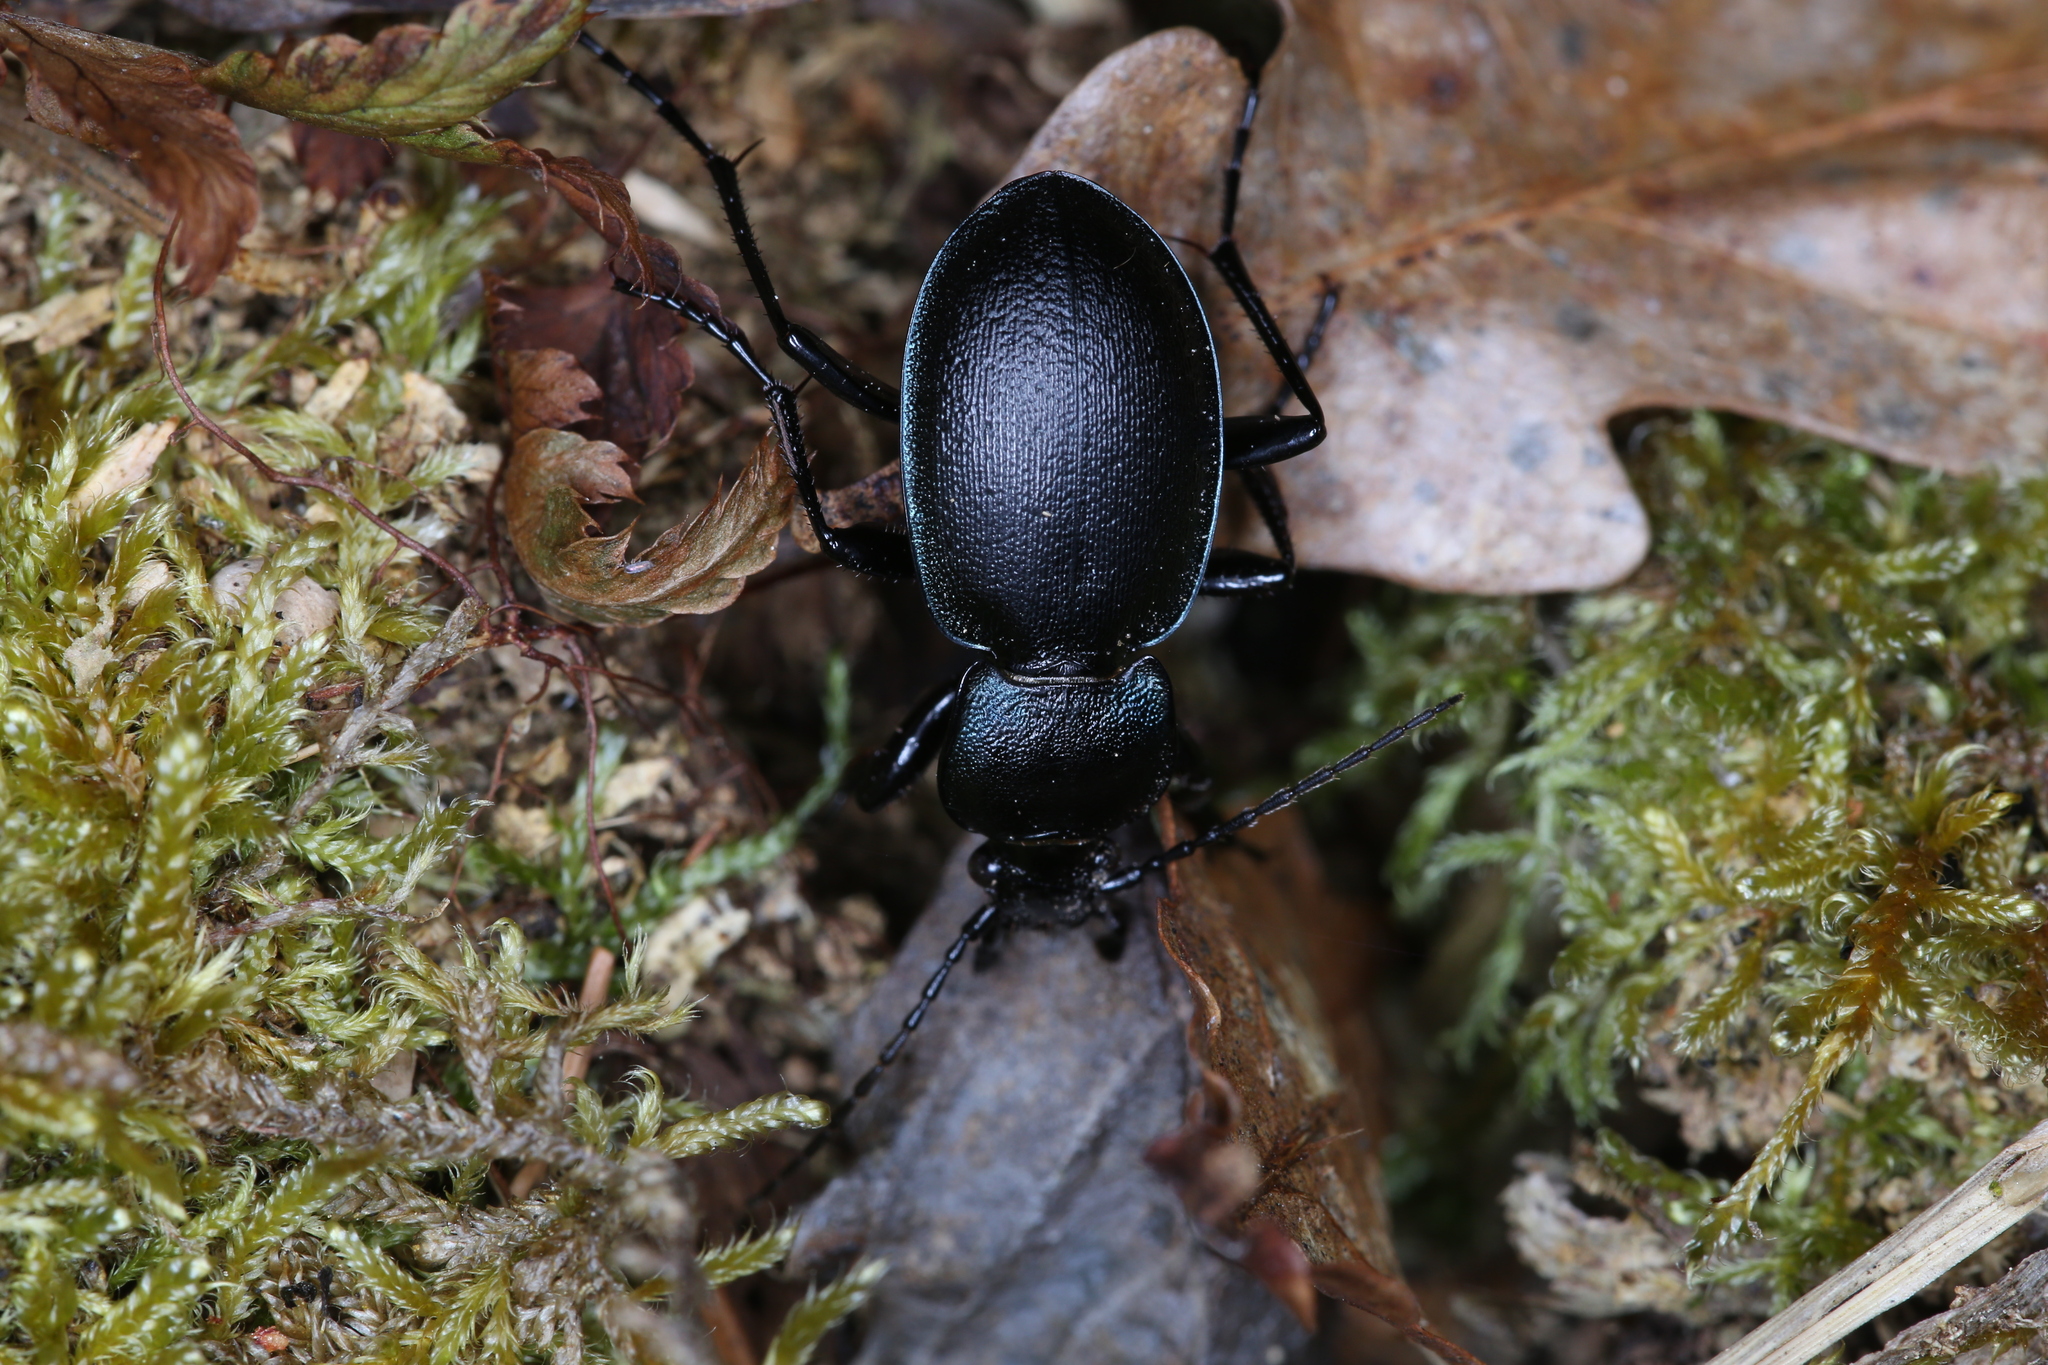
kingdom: Animalia
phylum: Arthropoda
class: Insecta
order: Coleoptera
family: Carabidae
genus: Carabus
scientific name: Carabus convexus
